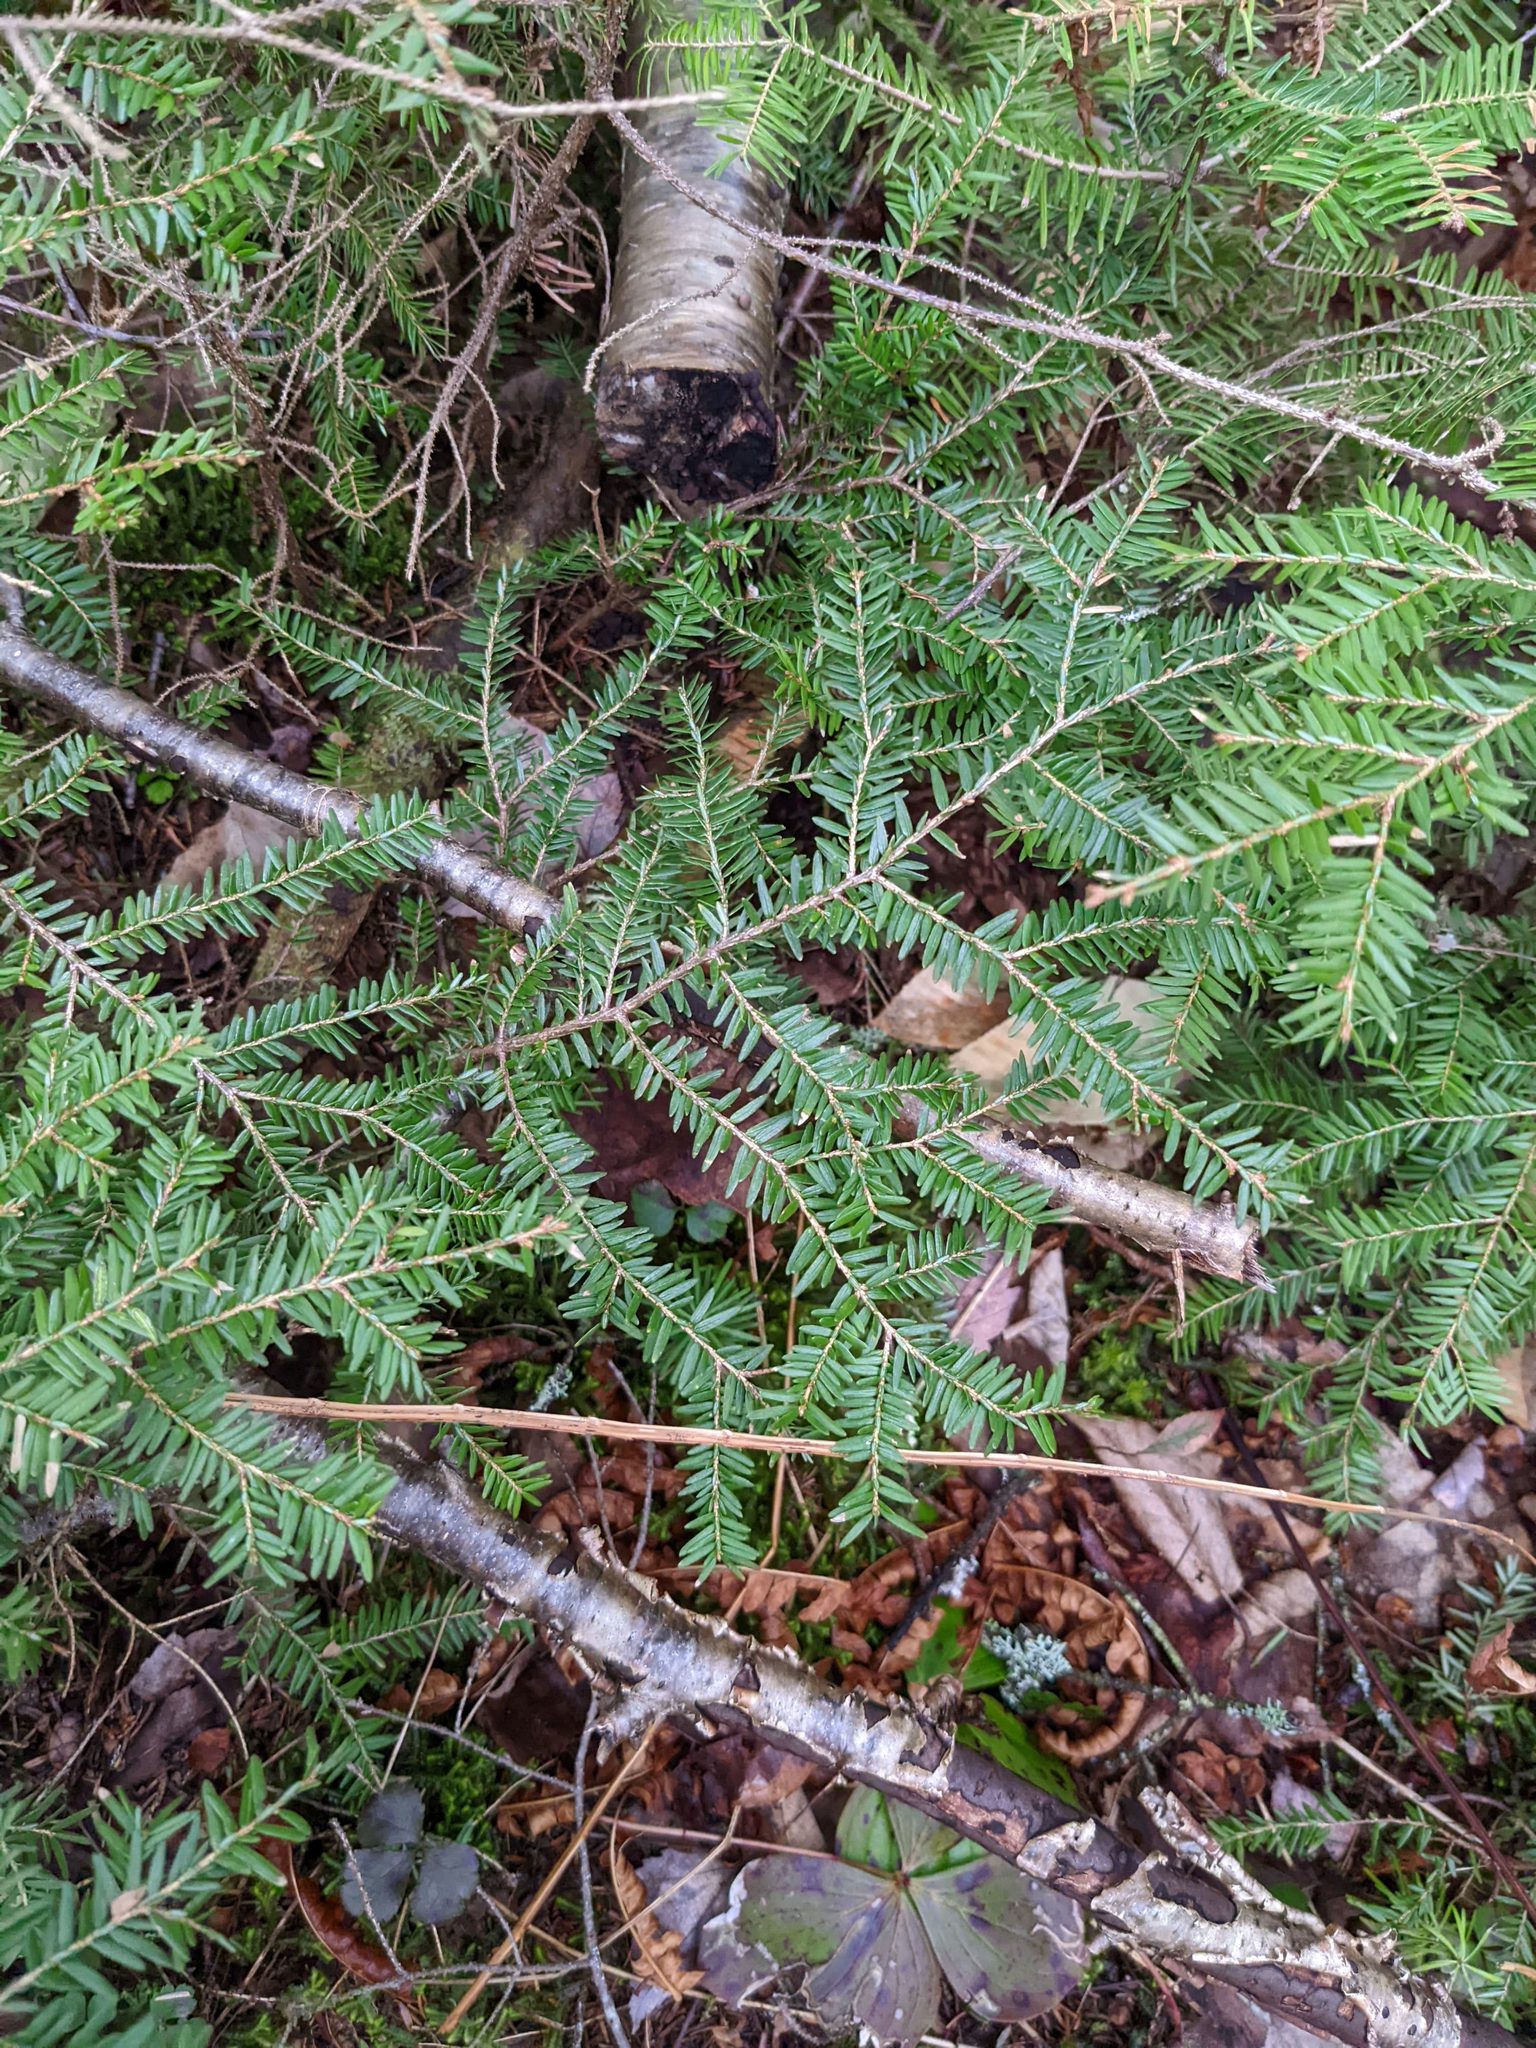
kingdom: Plantae
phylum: Tracheophyta
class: Pinopsida
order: Pinales
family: Pinaceae
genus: Tsuga
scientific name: Tsuga canadensis
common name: Eastern hemlock
